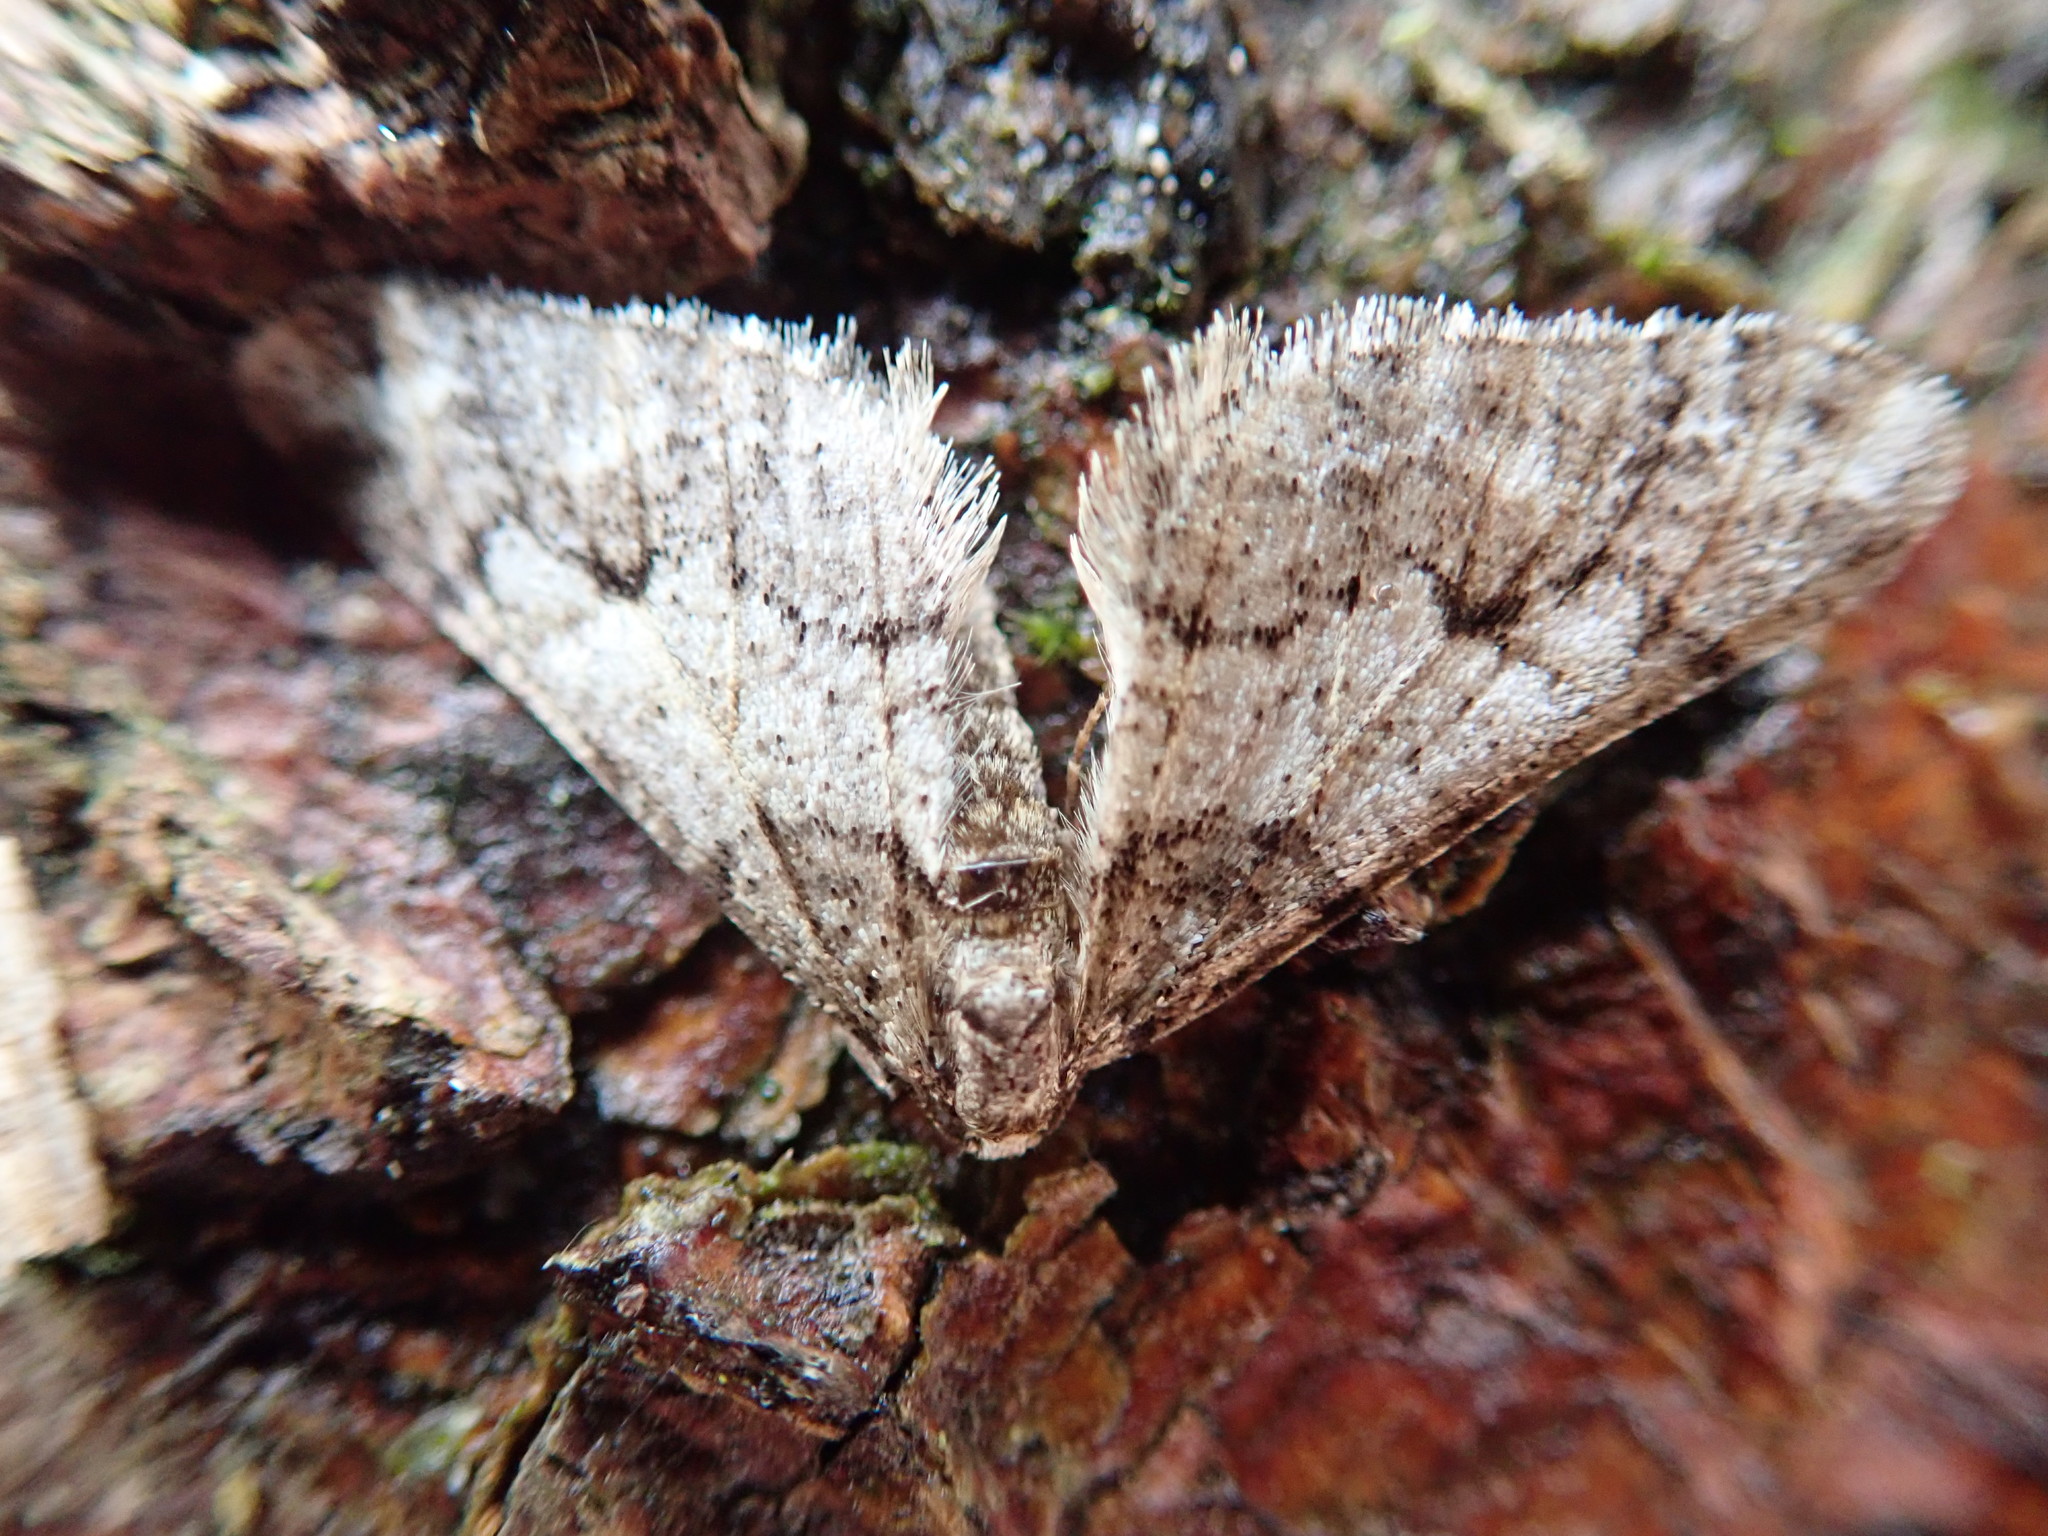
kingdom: Animalia
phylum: Arthropoda
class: Insecta
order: Lepidoptera
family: Geometridae
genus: Agriopis
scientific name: Agriopis leucophaearia
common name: Spring usher
